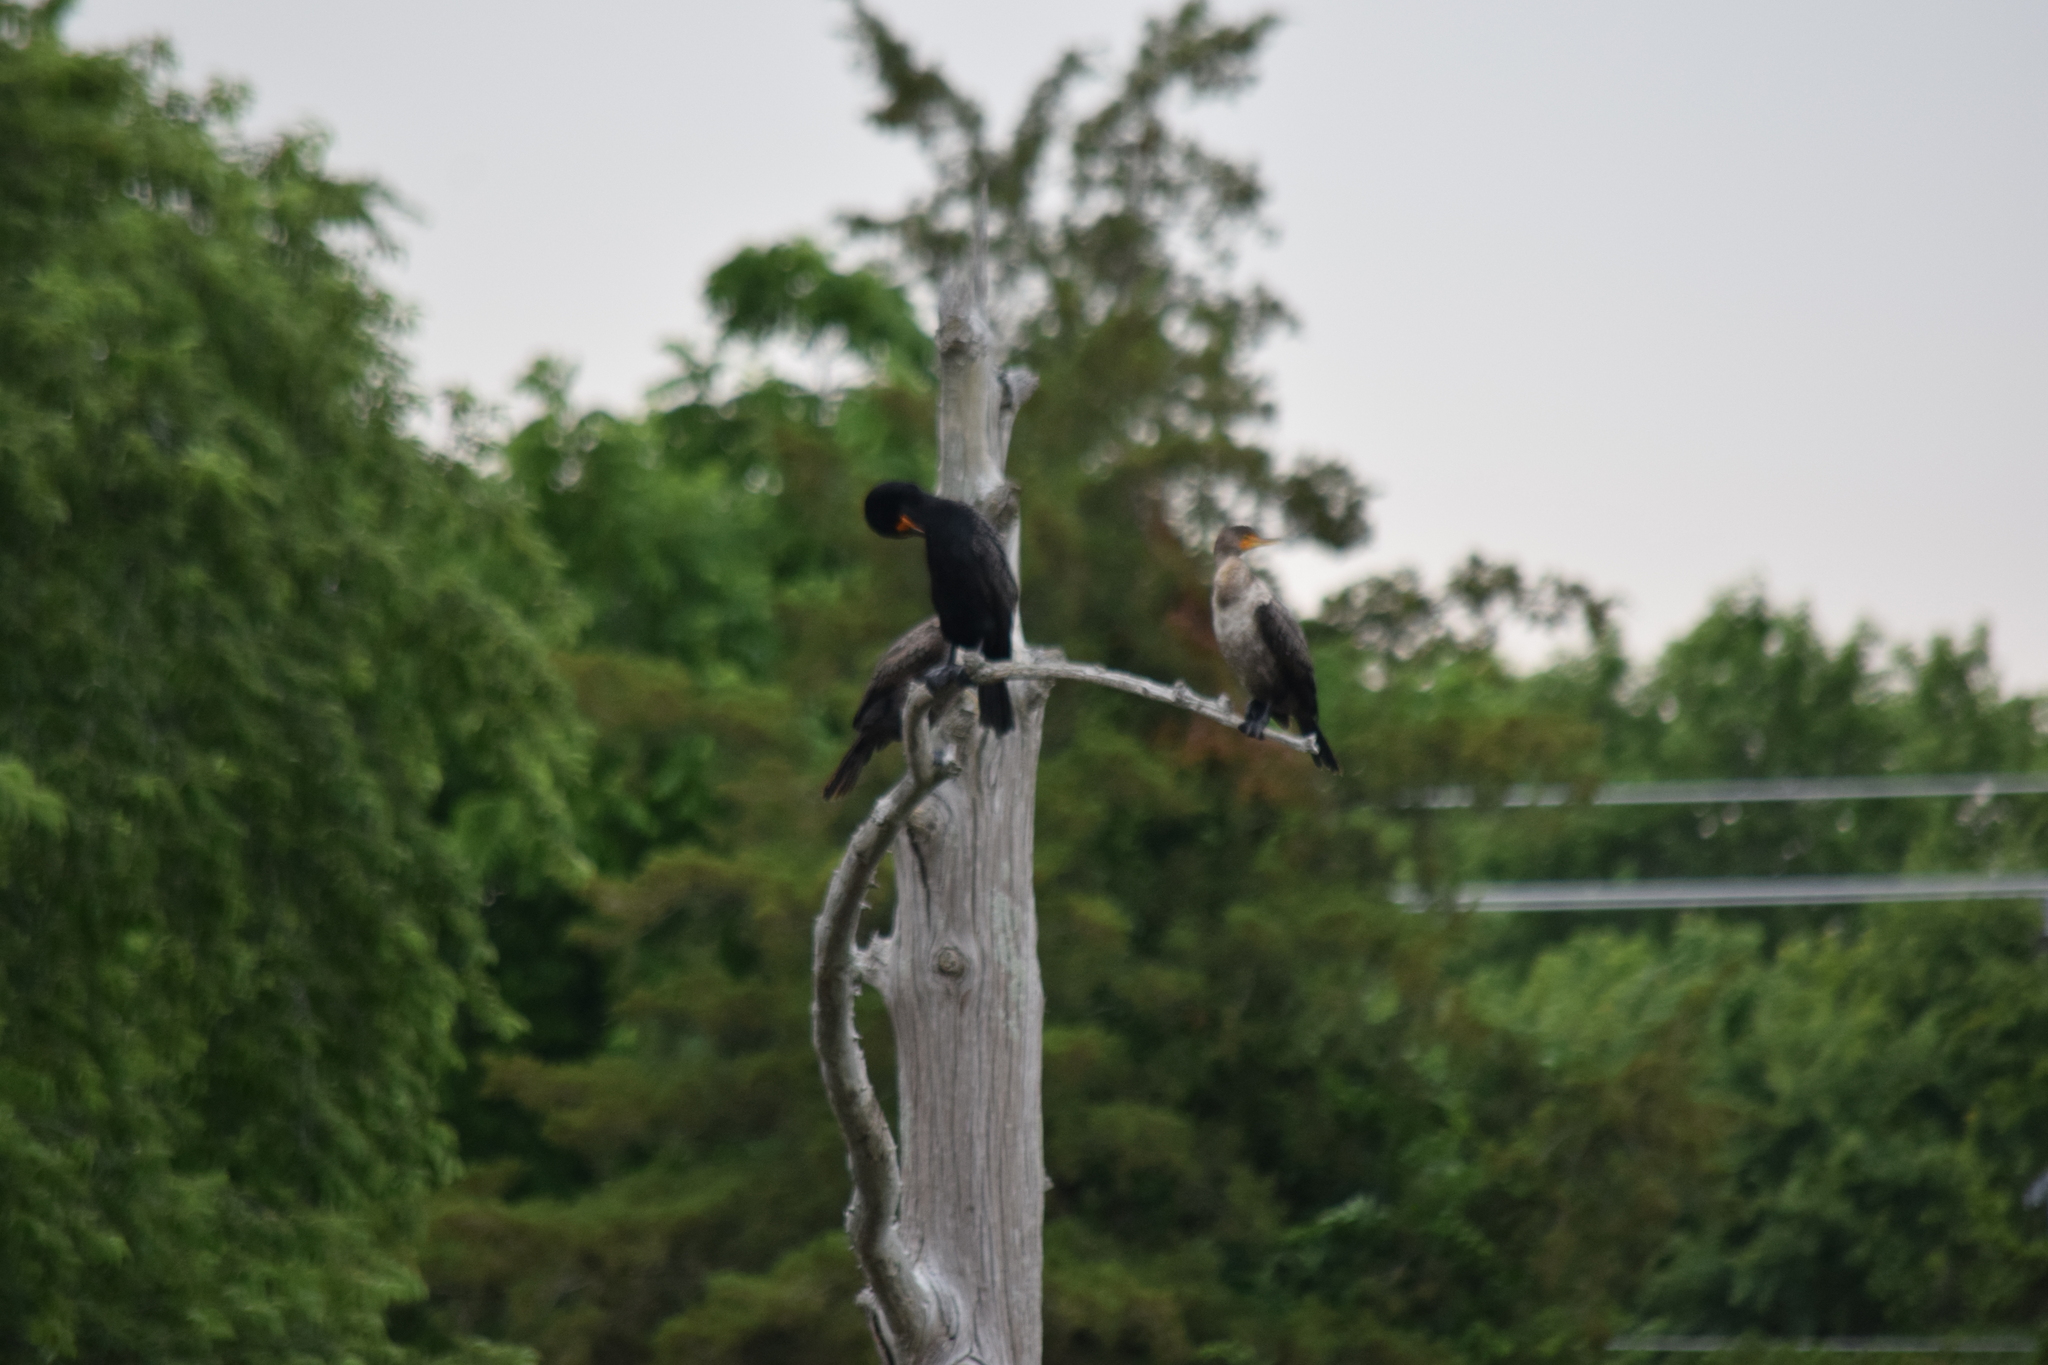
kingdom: Animalia
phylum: Chordata
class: Aves
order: Suliformes
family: Phalacrocoracidae
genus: Phalacrocorax
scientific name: Phalacrocorax auritus
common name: Double-crested cormorant
